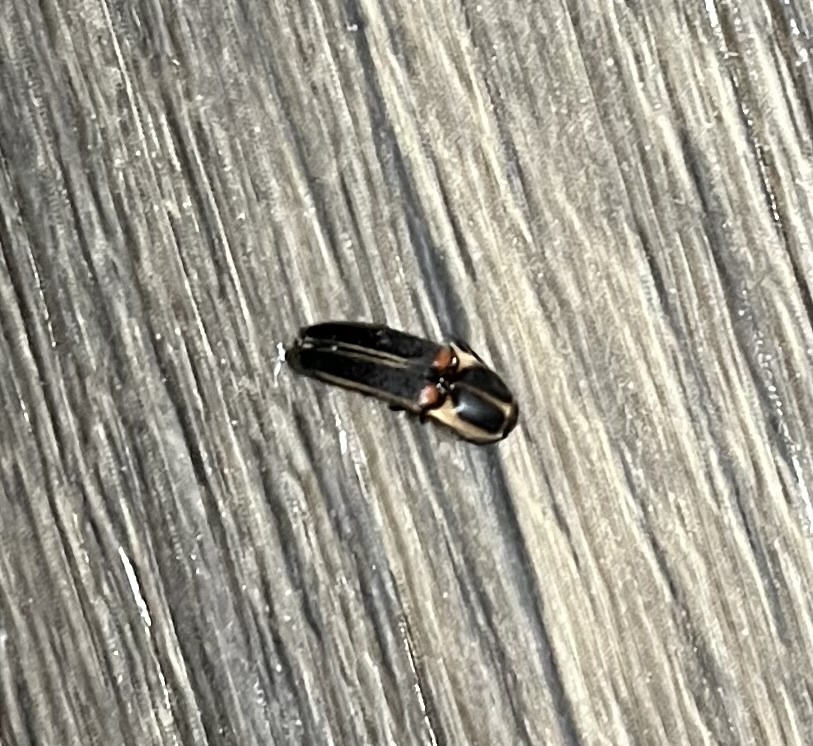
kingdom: Animalia
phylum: Arthropoda
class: Insecta
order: Coleoptera
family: Elateridae
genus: Anchastus
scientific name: Anchastus
